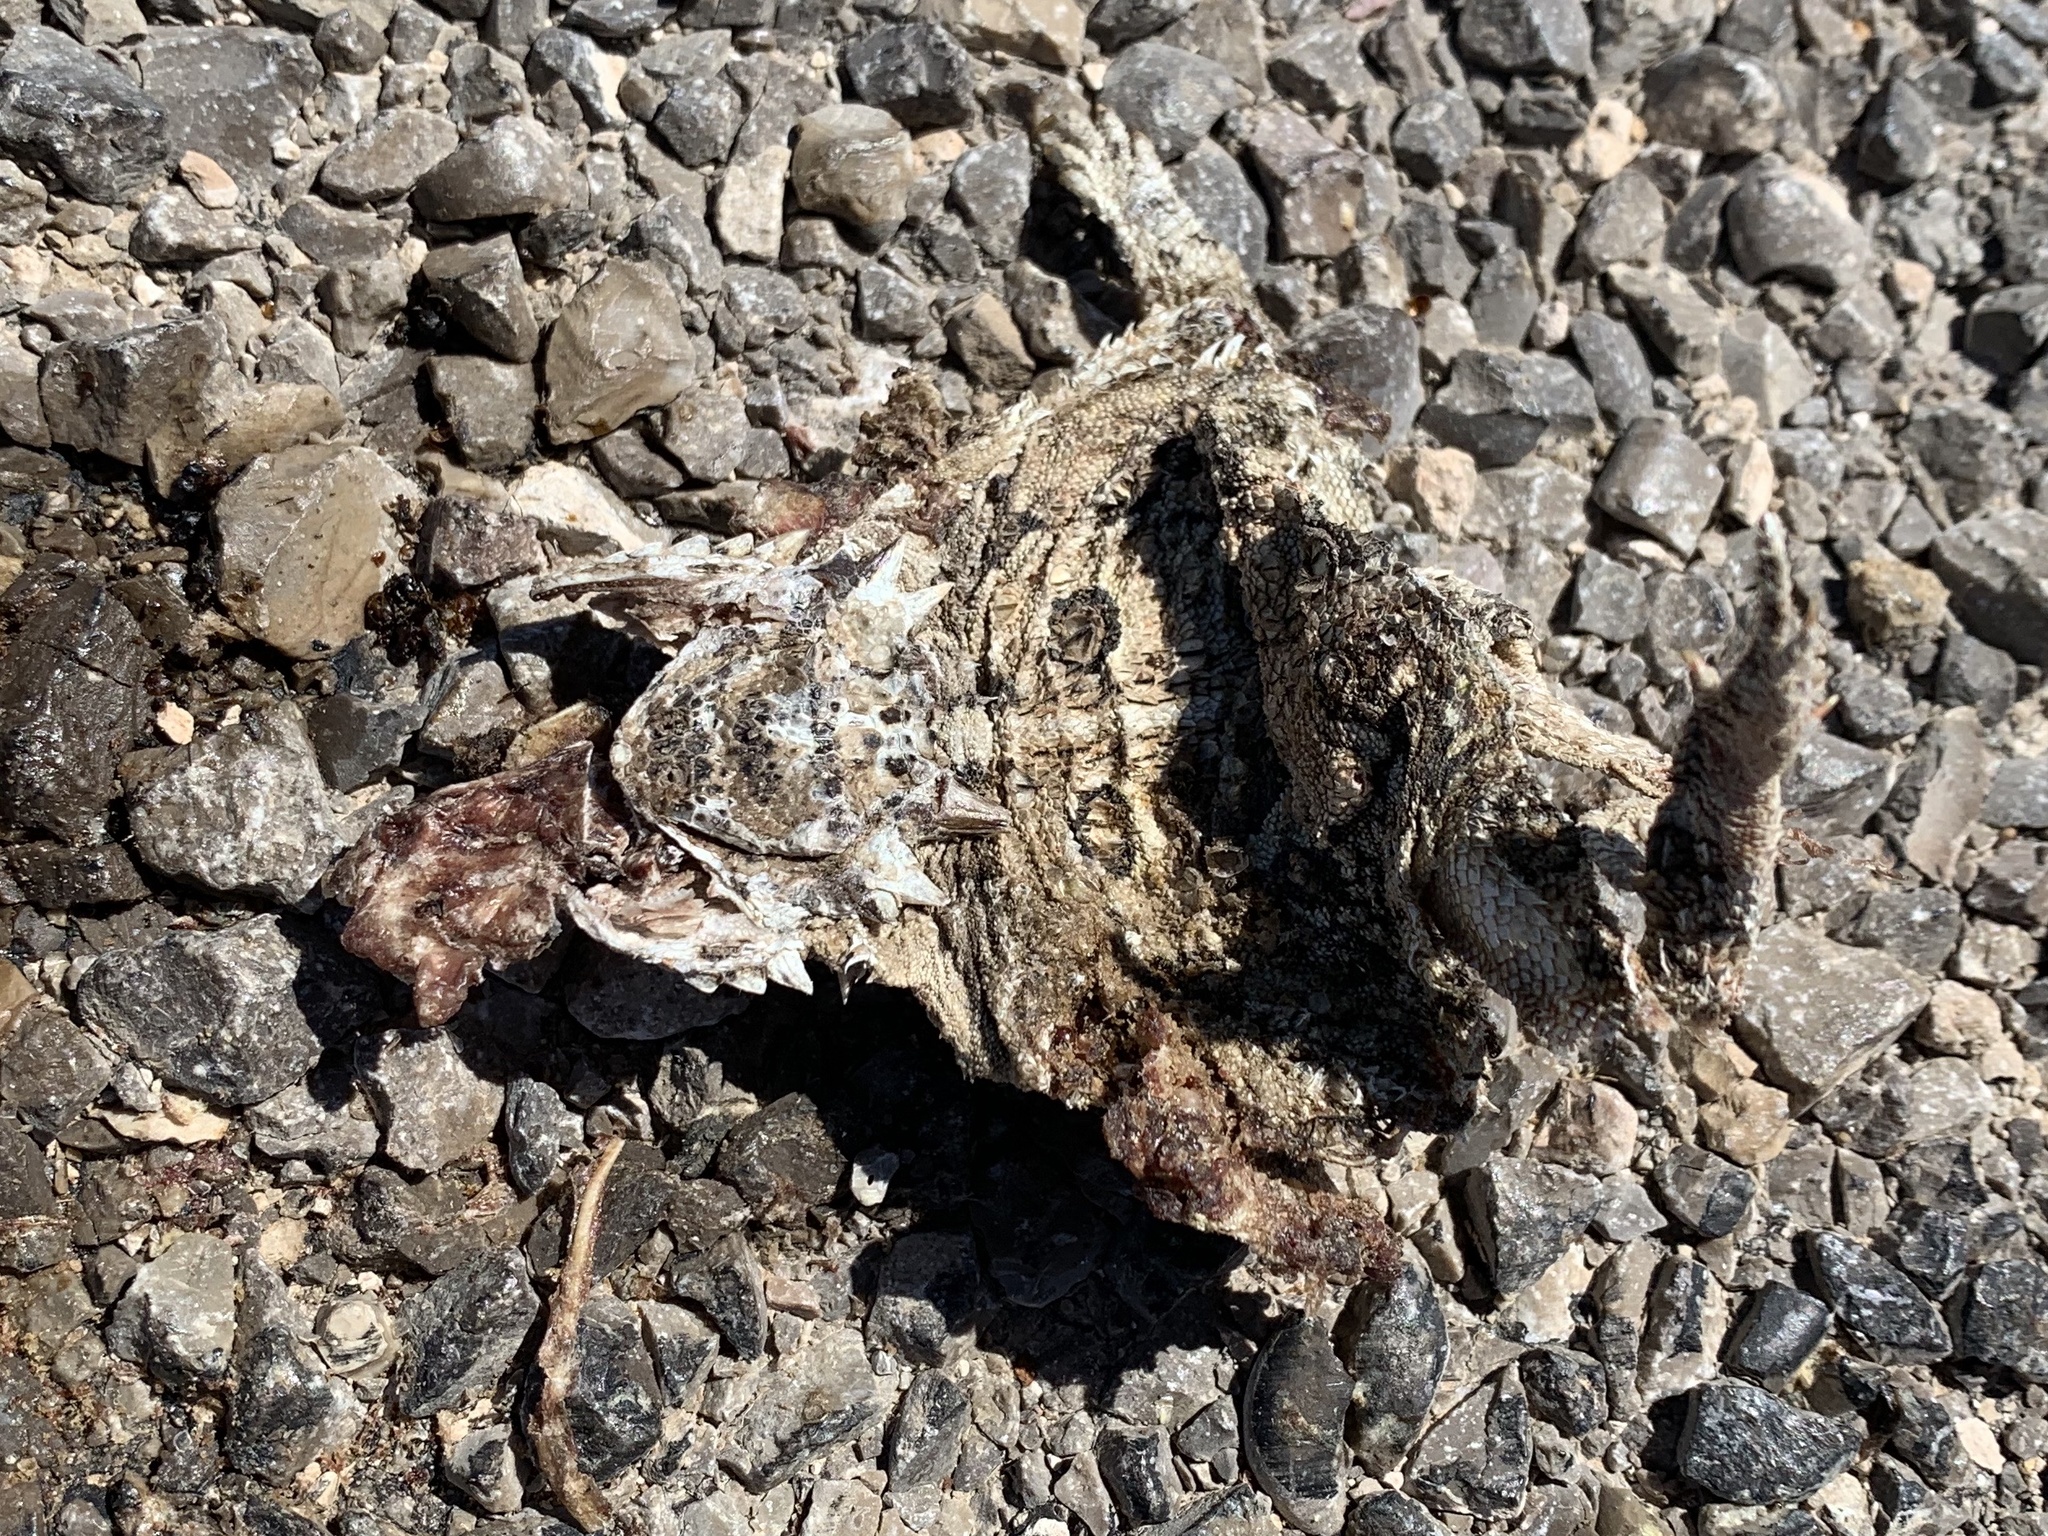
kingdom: Animalia
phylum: Chordata
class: Squamata
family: Phrynosomatidae
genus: Phrynosoma
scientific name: Phrynosoma cornutum
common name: Texas horned lizard
